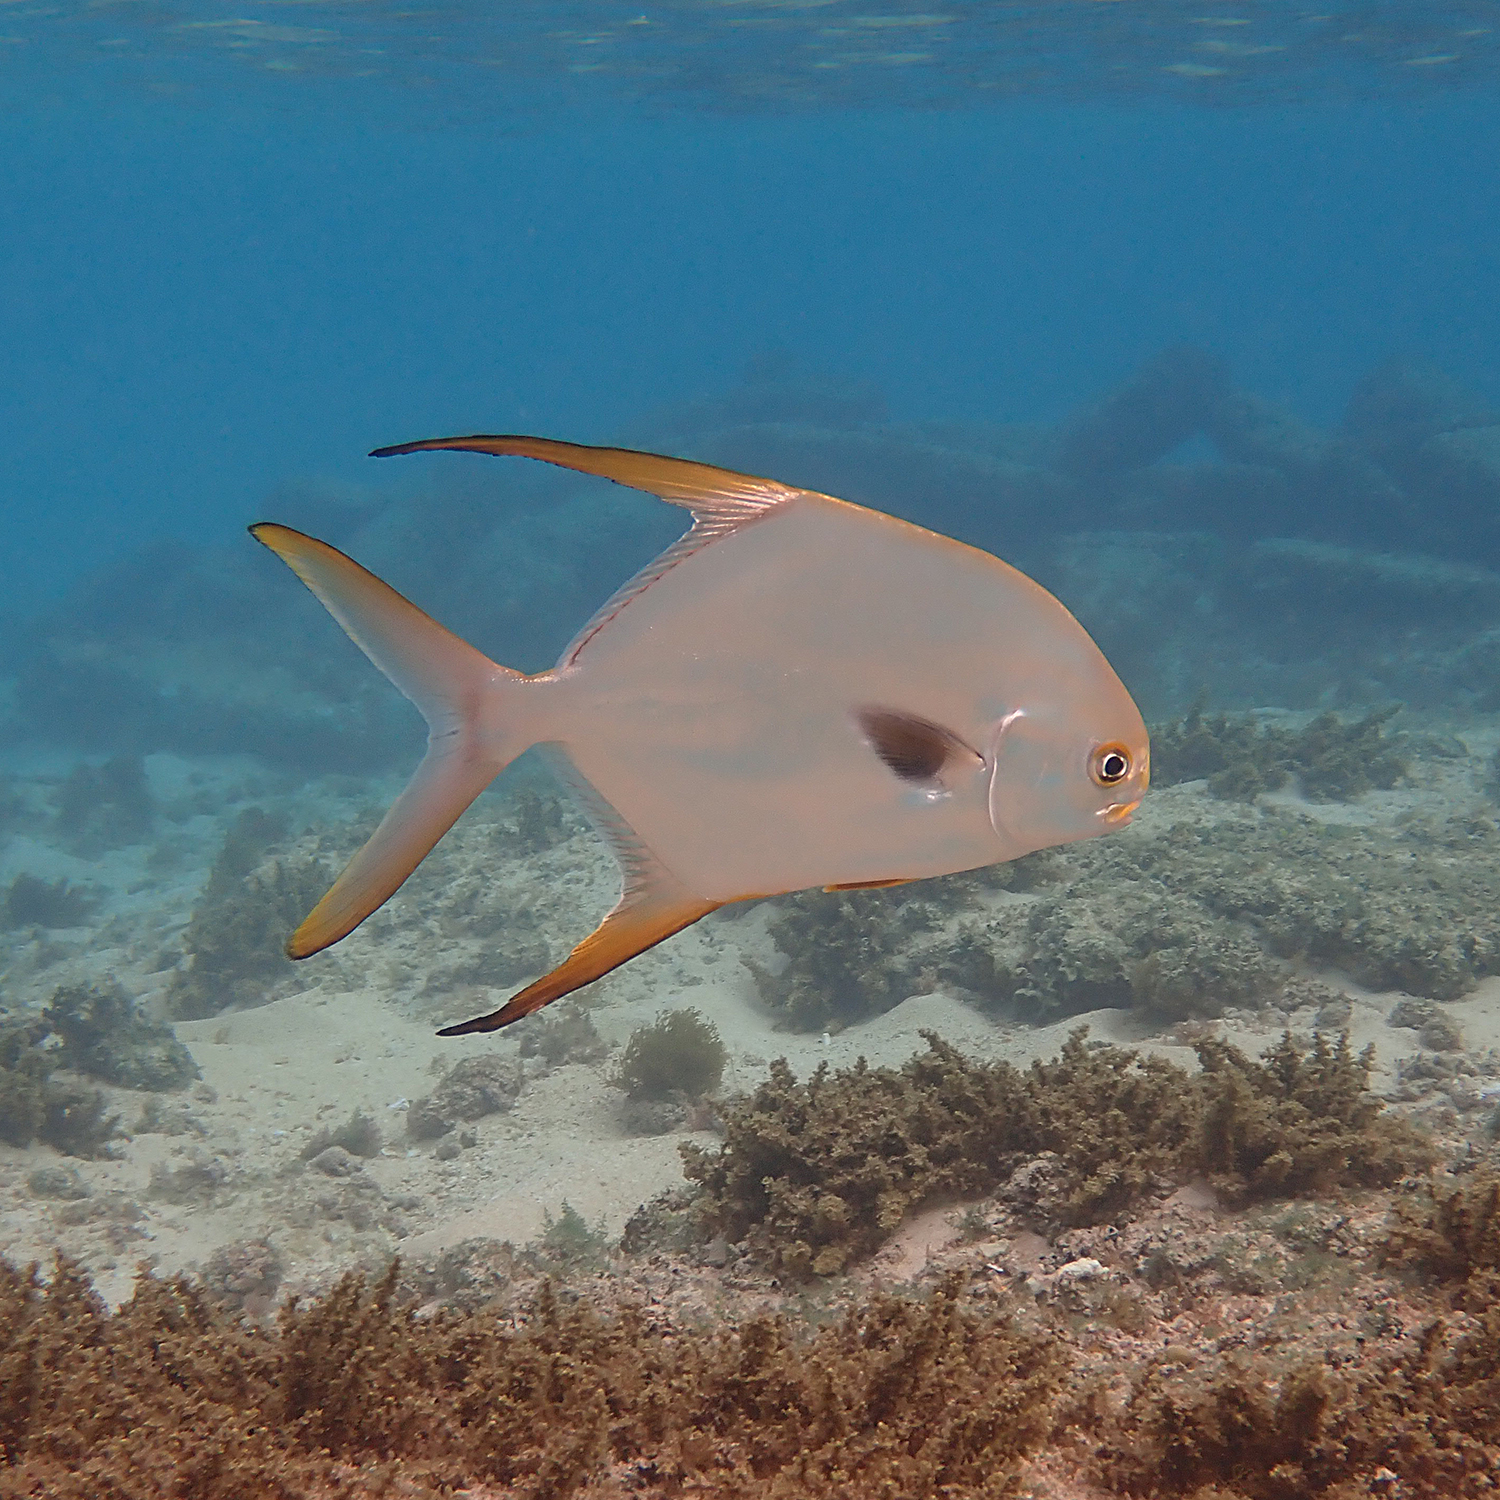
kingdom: Animalia
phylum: Chordata
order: Perciformes
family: Carangidae
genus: Trachinotus
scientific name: Trachinotus blochii
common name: Snubnose pompano
